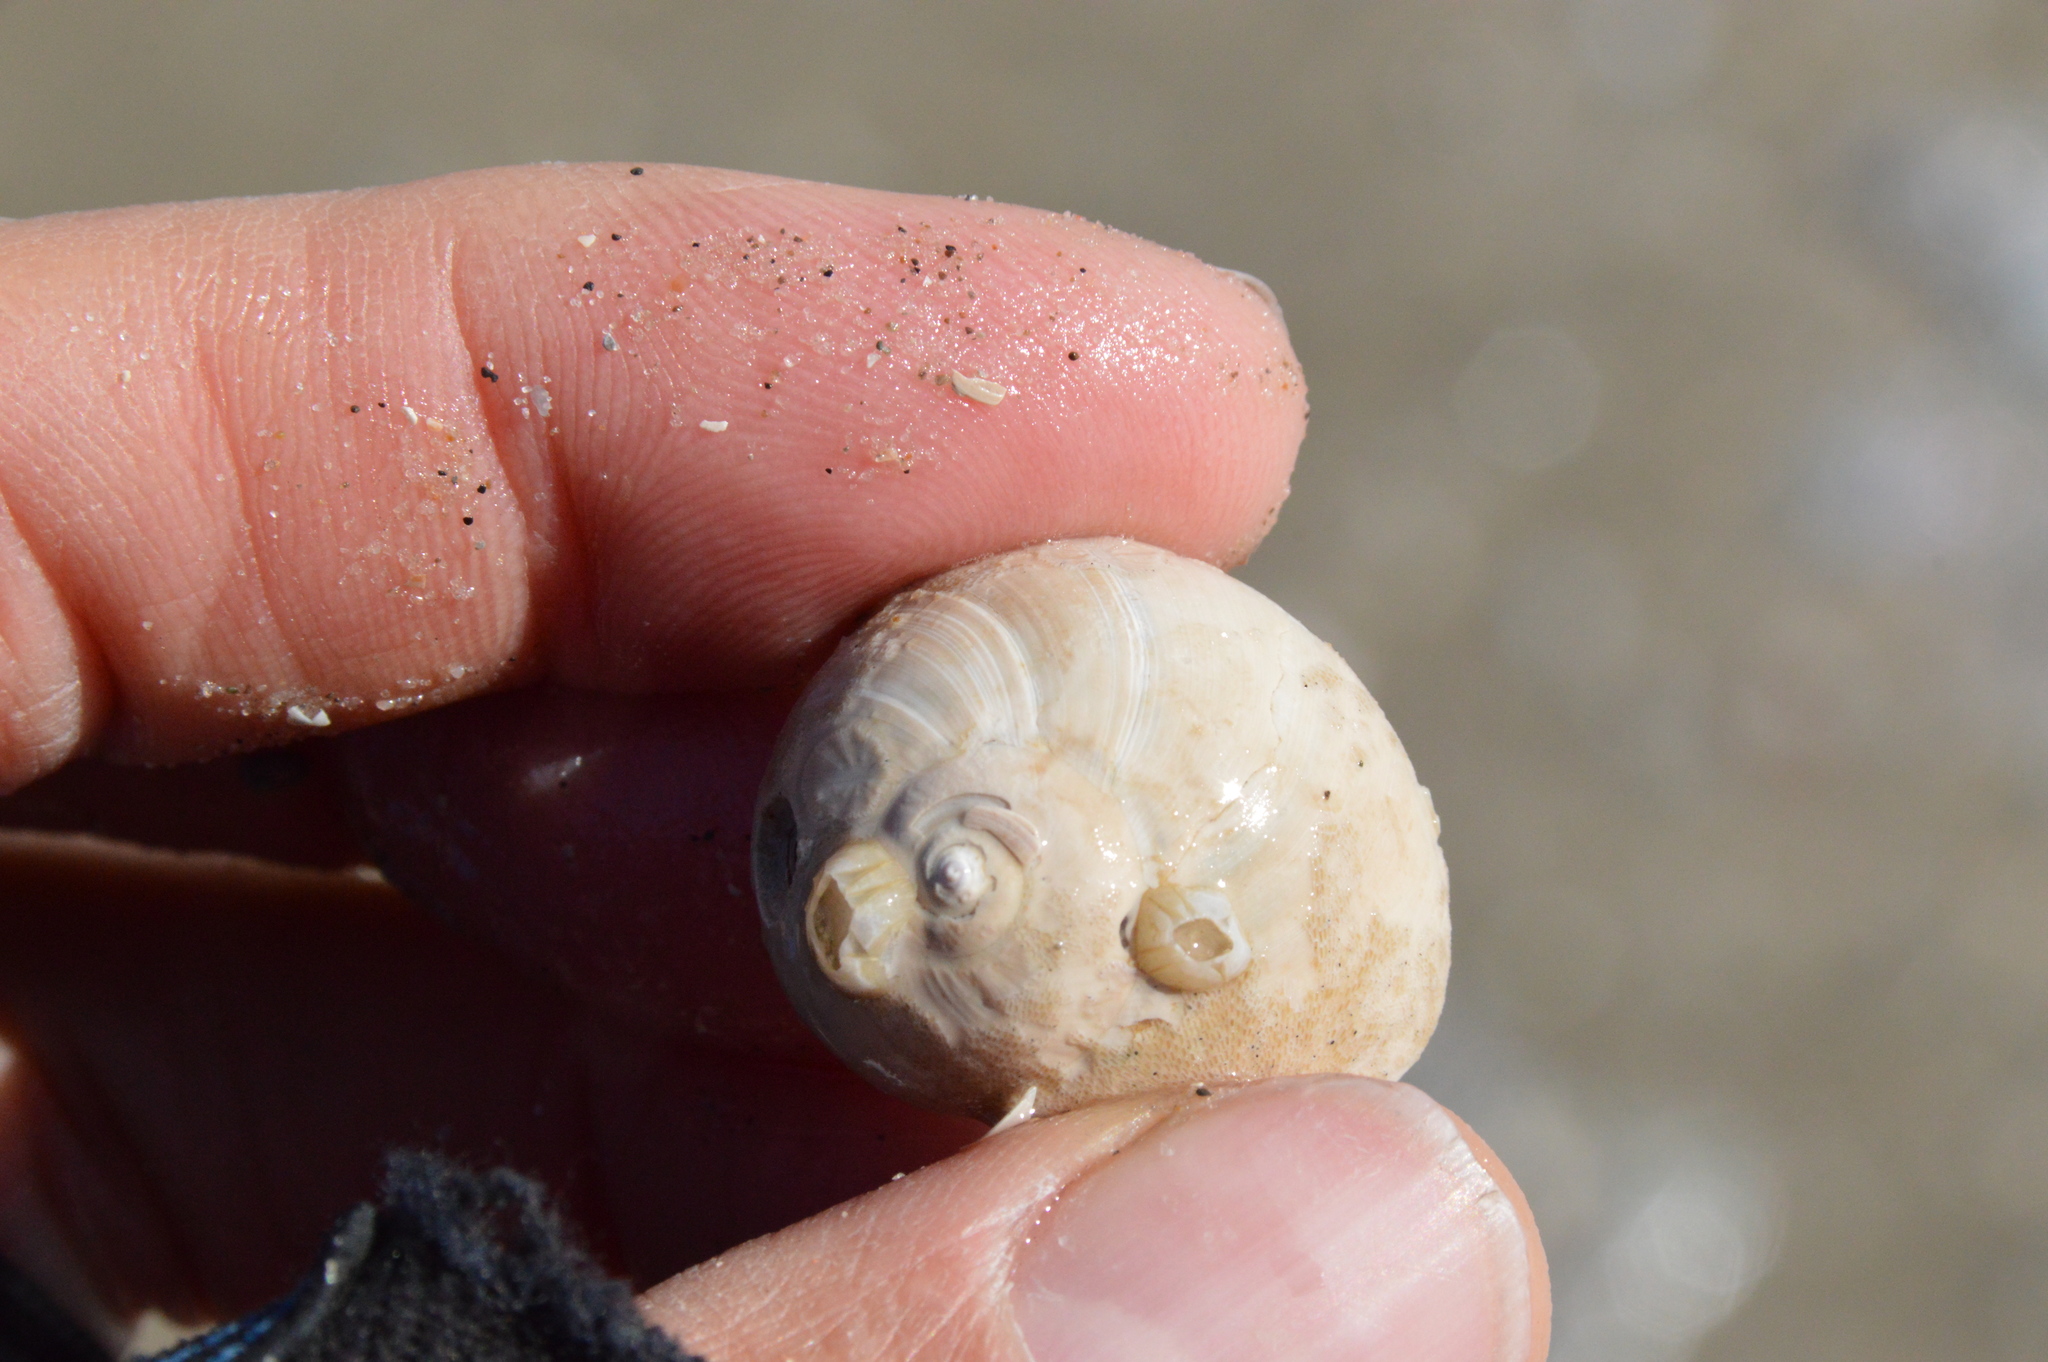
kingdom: Animalia
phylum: Mollusca
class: Gastropoda
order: Littorinimorpha
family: Naticidae
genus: Neverita
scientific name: Neverita delessertiana
